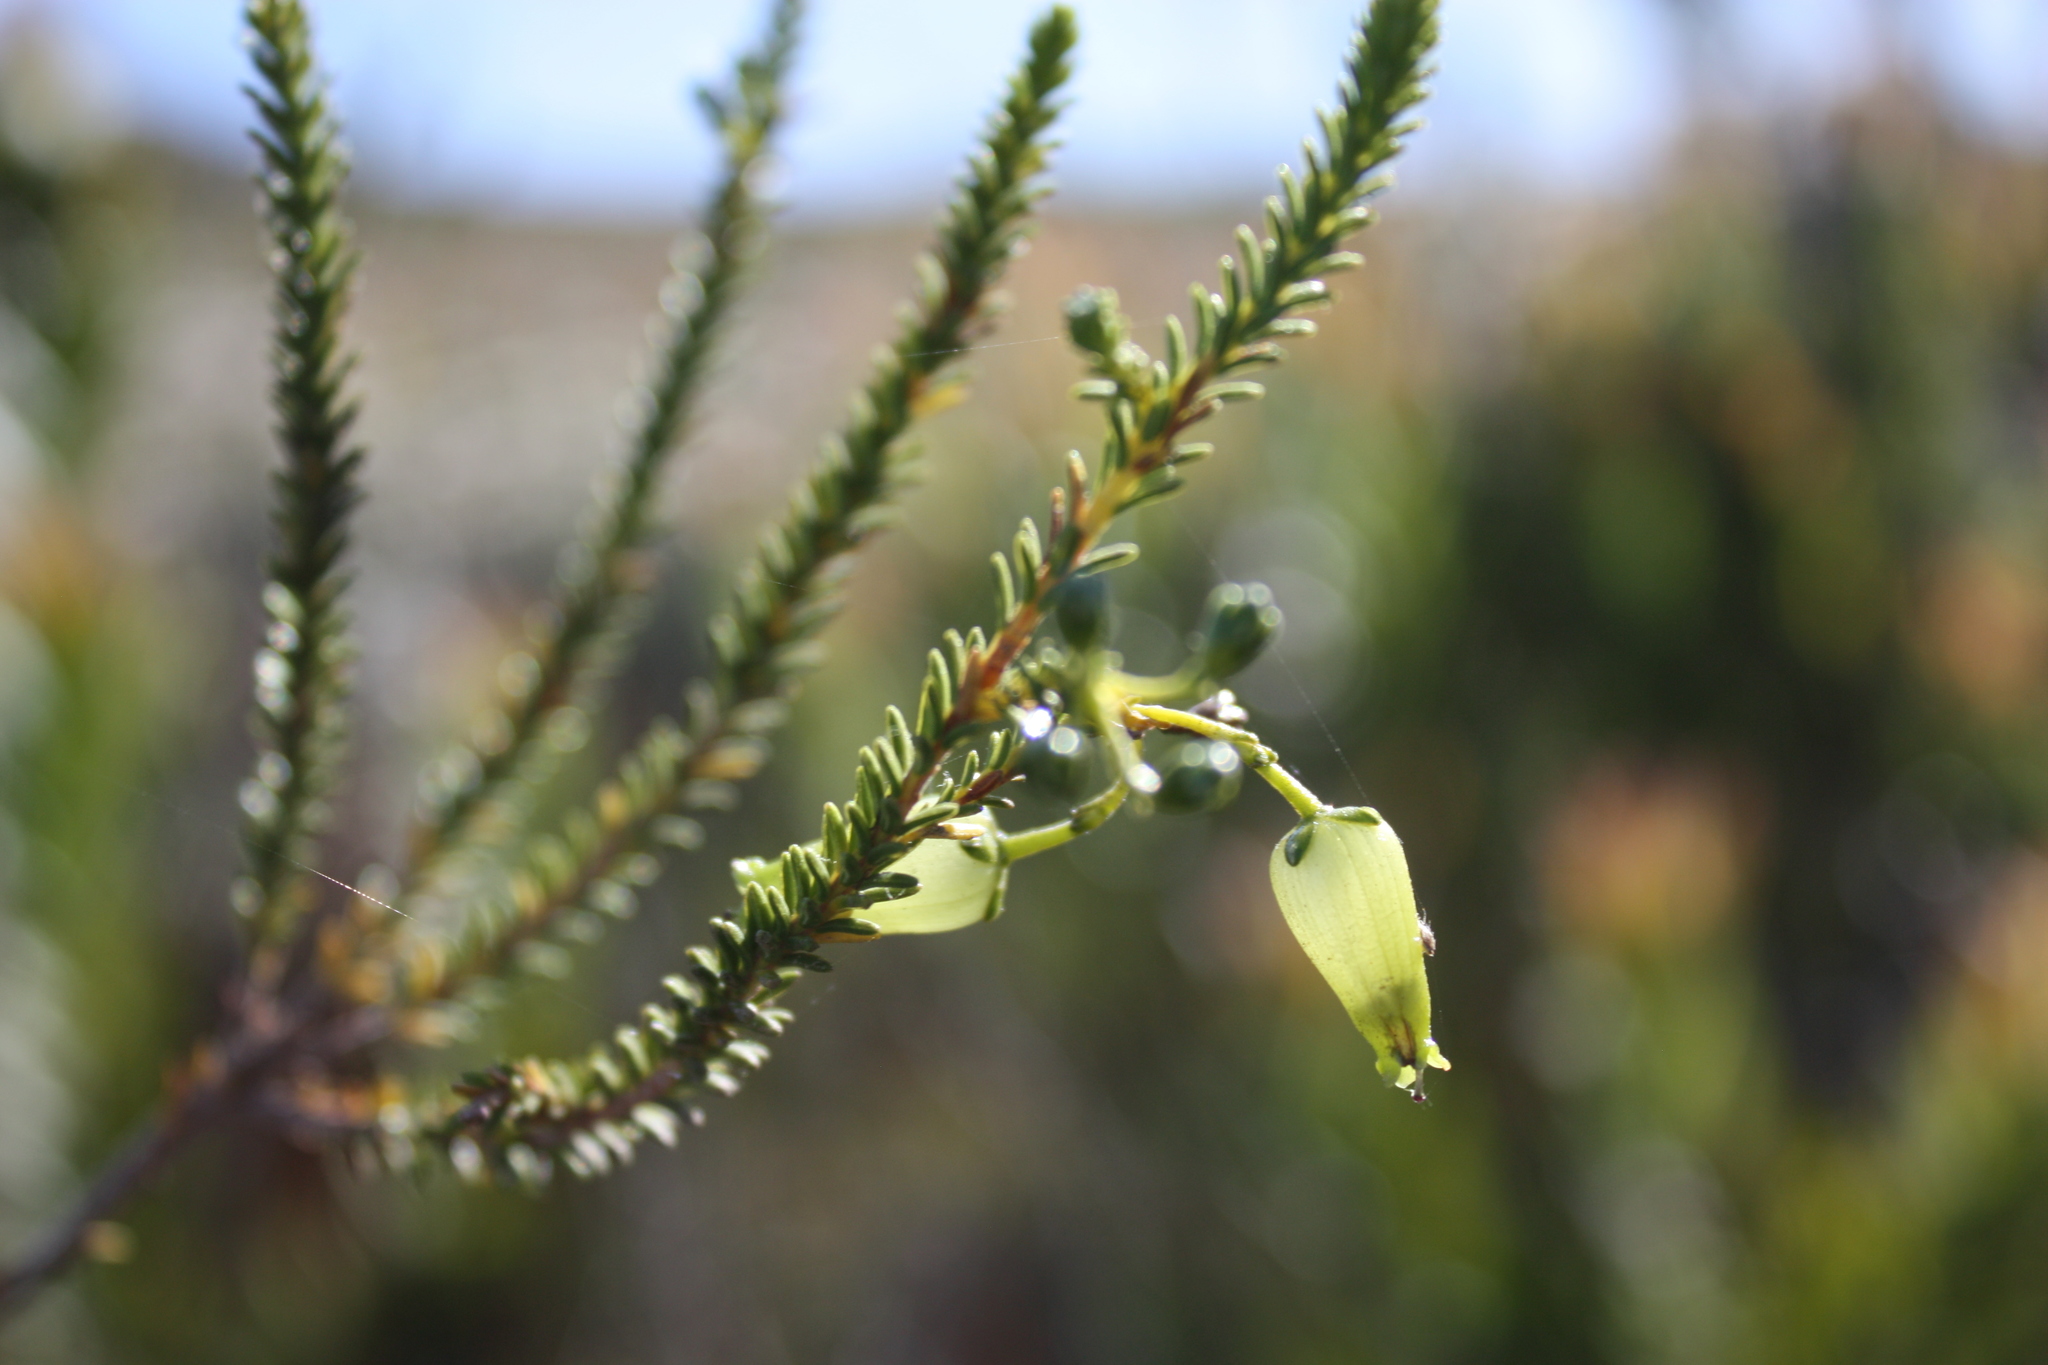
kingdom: Plantae
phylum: Tracheophyta
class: Magnoliopsida
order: Ericales
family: Ericaceae
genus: Erica
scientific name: Erica urna-viridis
